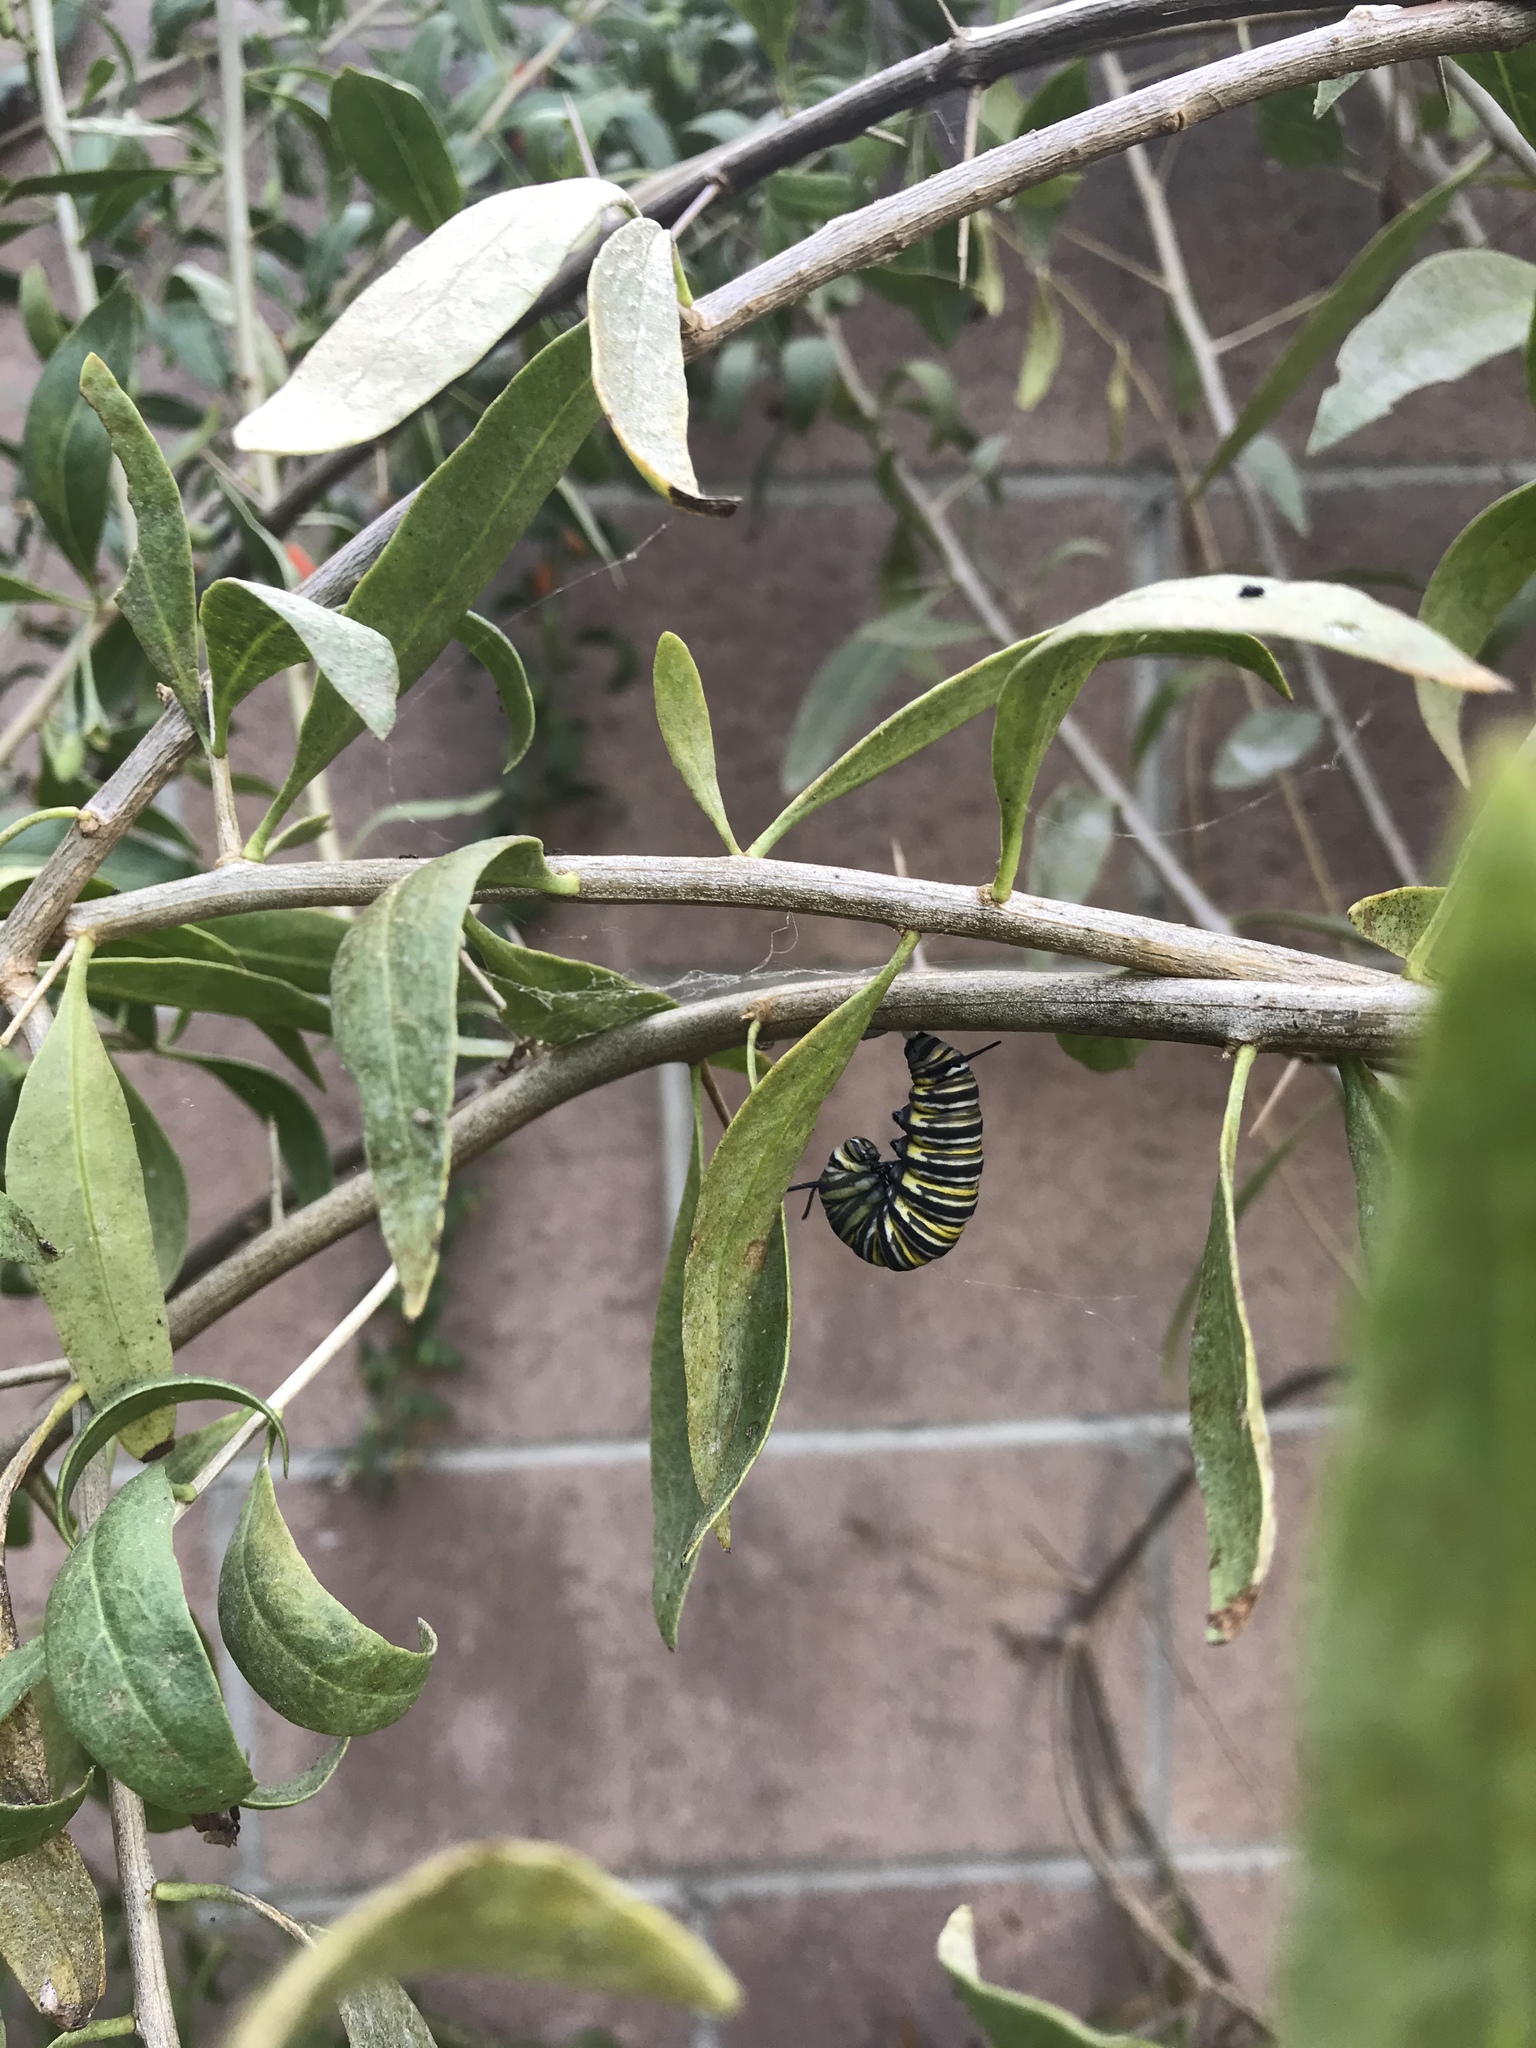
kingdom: Animalia
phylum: Arthropoda
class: Insecta
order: Lepidoptera
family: Nymphalidae
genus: Danaus
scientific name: Danaus plexippus
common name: Monarch
